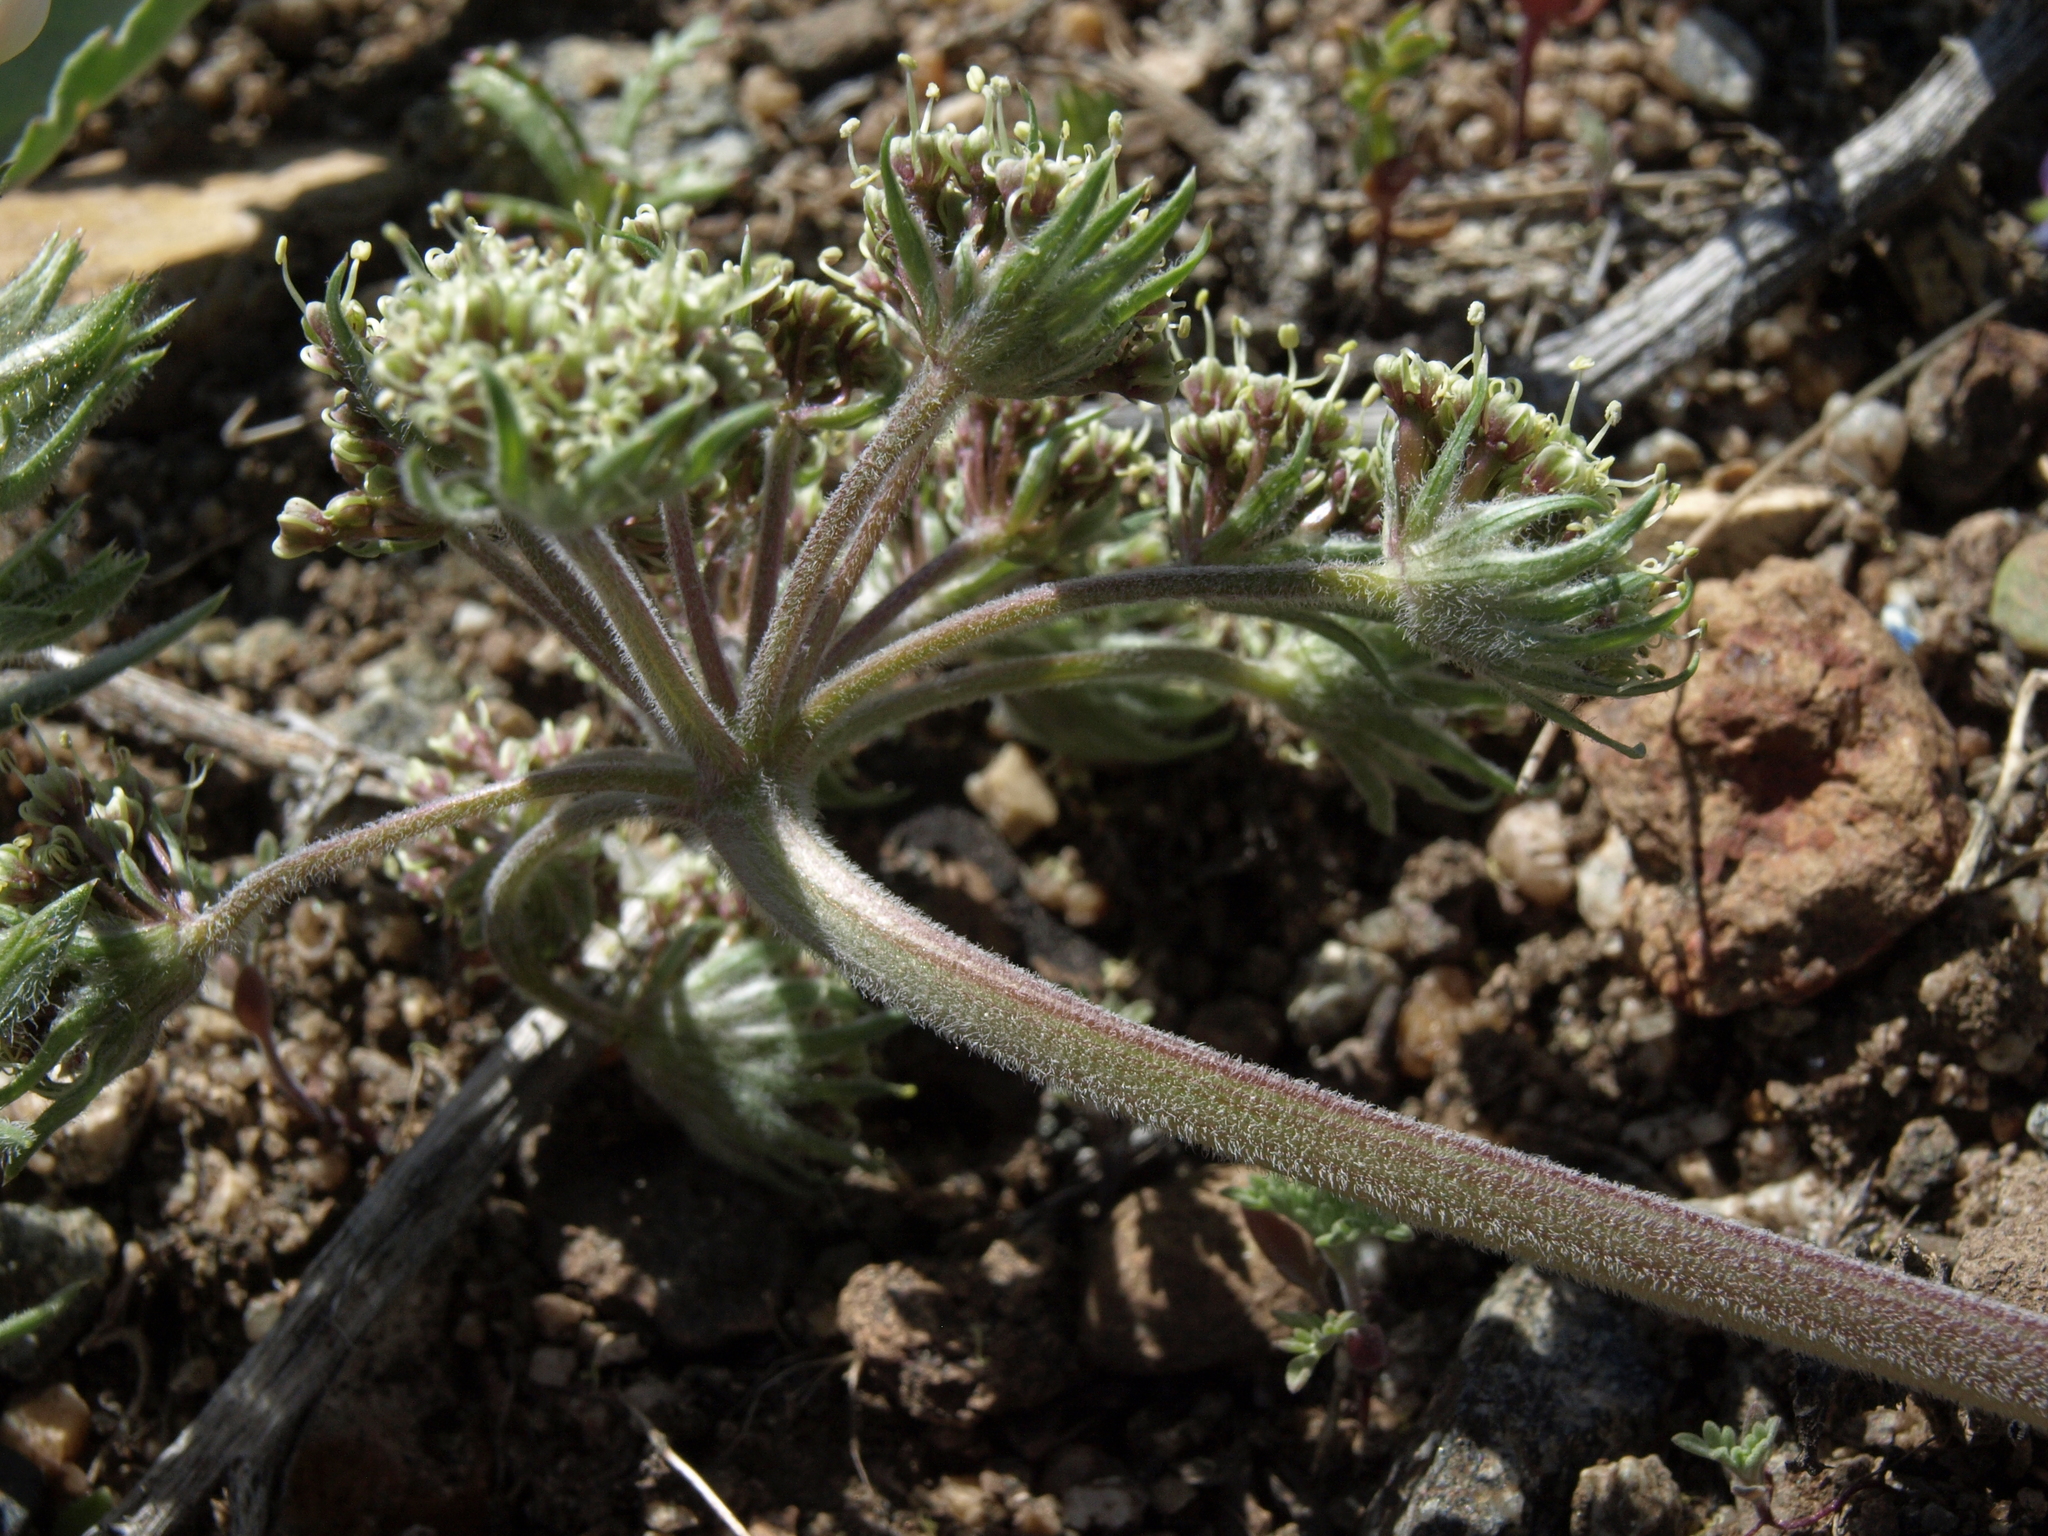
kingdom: Plantae
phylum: Tracheophyta
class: Magnoliopsida
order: Apiales
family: Apiaceae
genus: Lomatium
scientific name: Lomatium macrocarpum
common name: Big-seed biscuitroot
